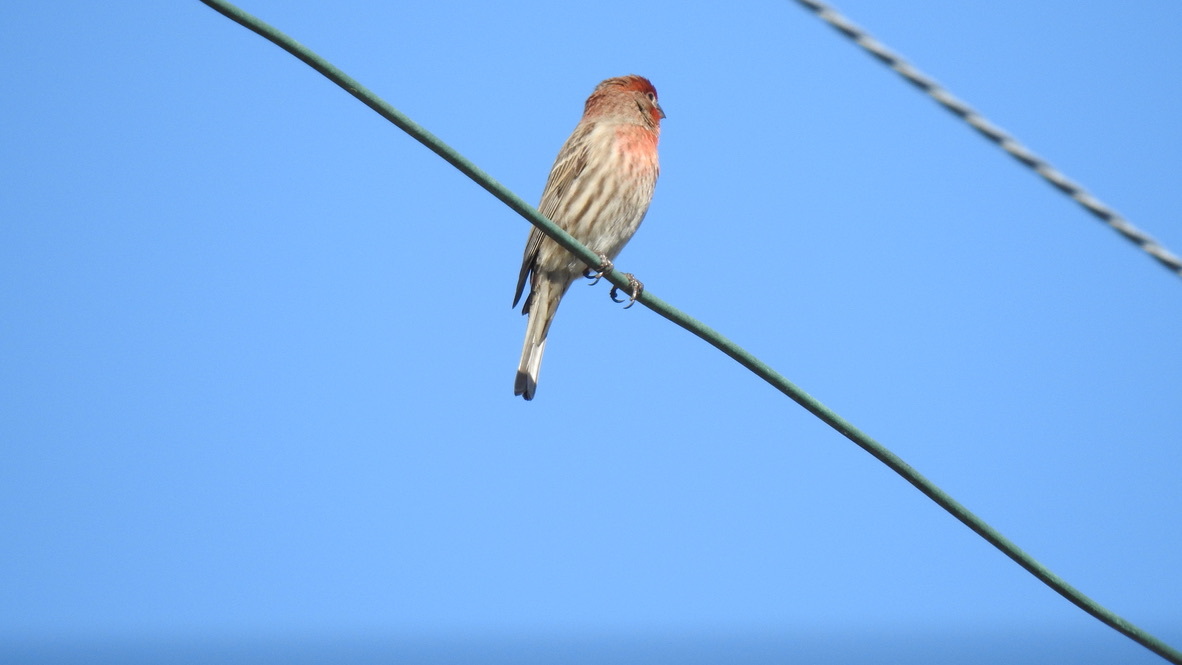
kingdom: Animalia
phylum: Chordata
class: Aves
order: Passeriformes
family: Fringillidae
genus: Haemorhous
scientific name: Haemorhous mexicanus
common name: House finch
